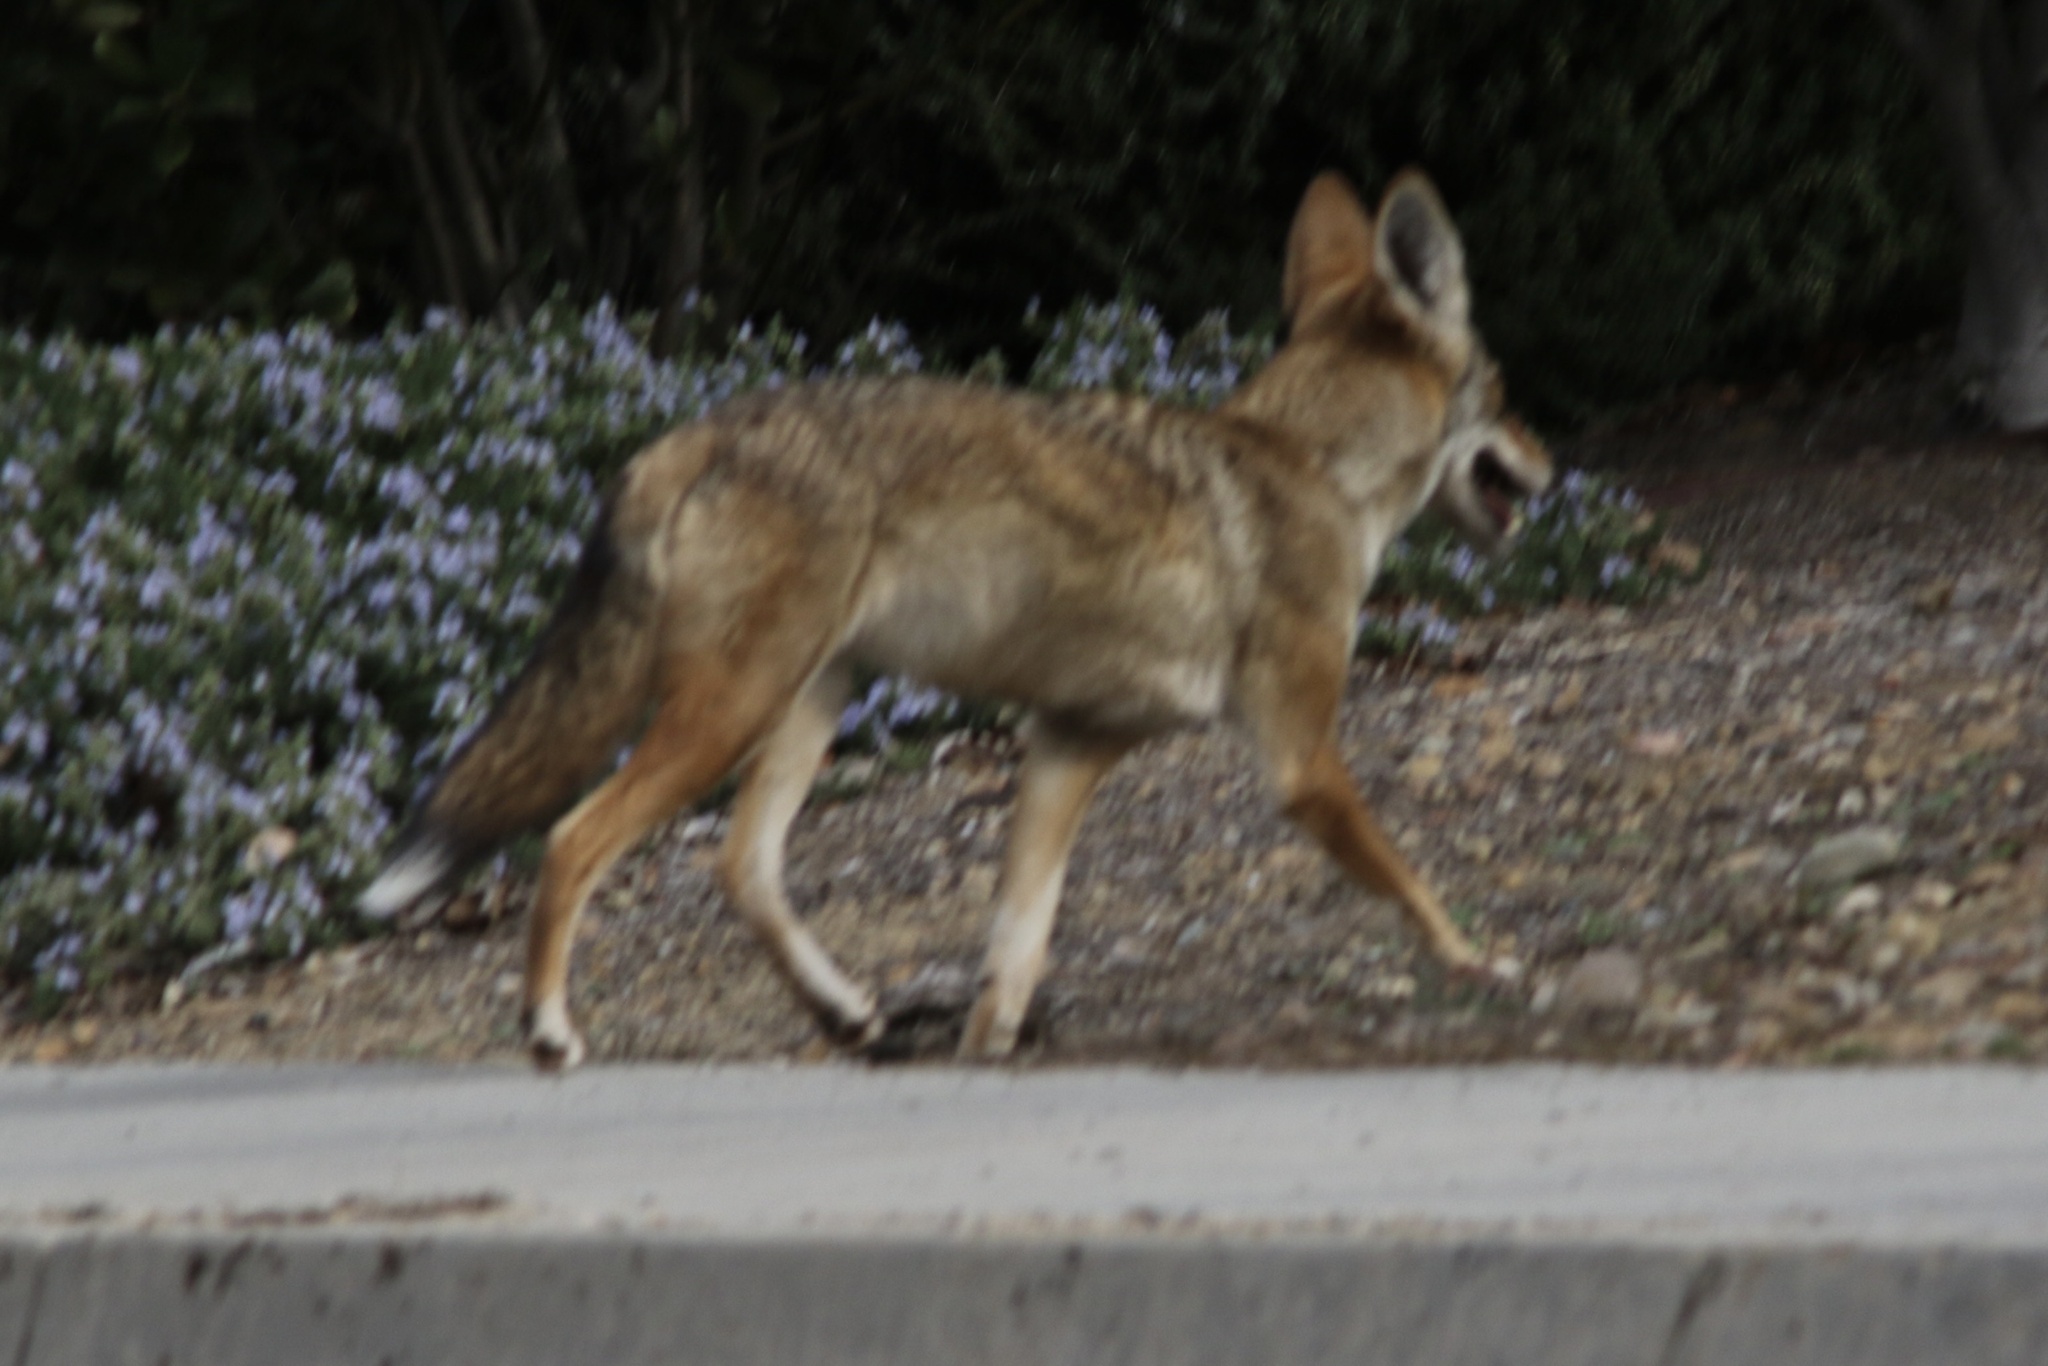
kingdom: Animalia
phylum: Chordata
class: Mammalia
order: Carnivora
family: Canidae
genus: Canis
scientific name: Canis latrans
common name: Coyote
